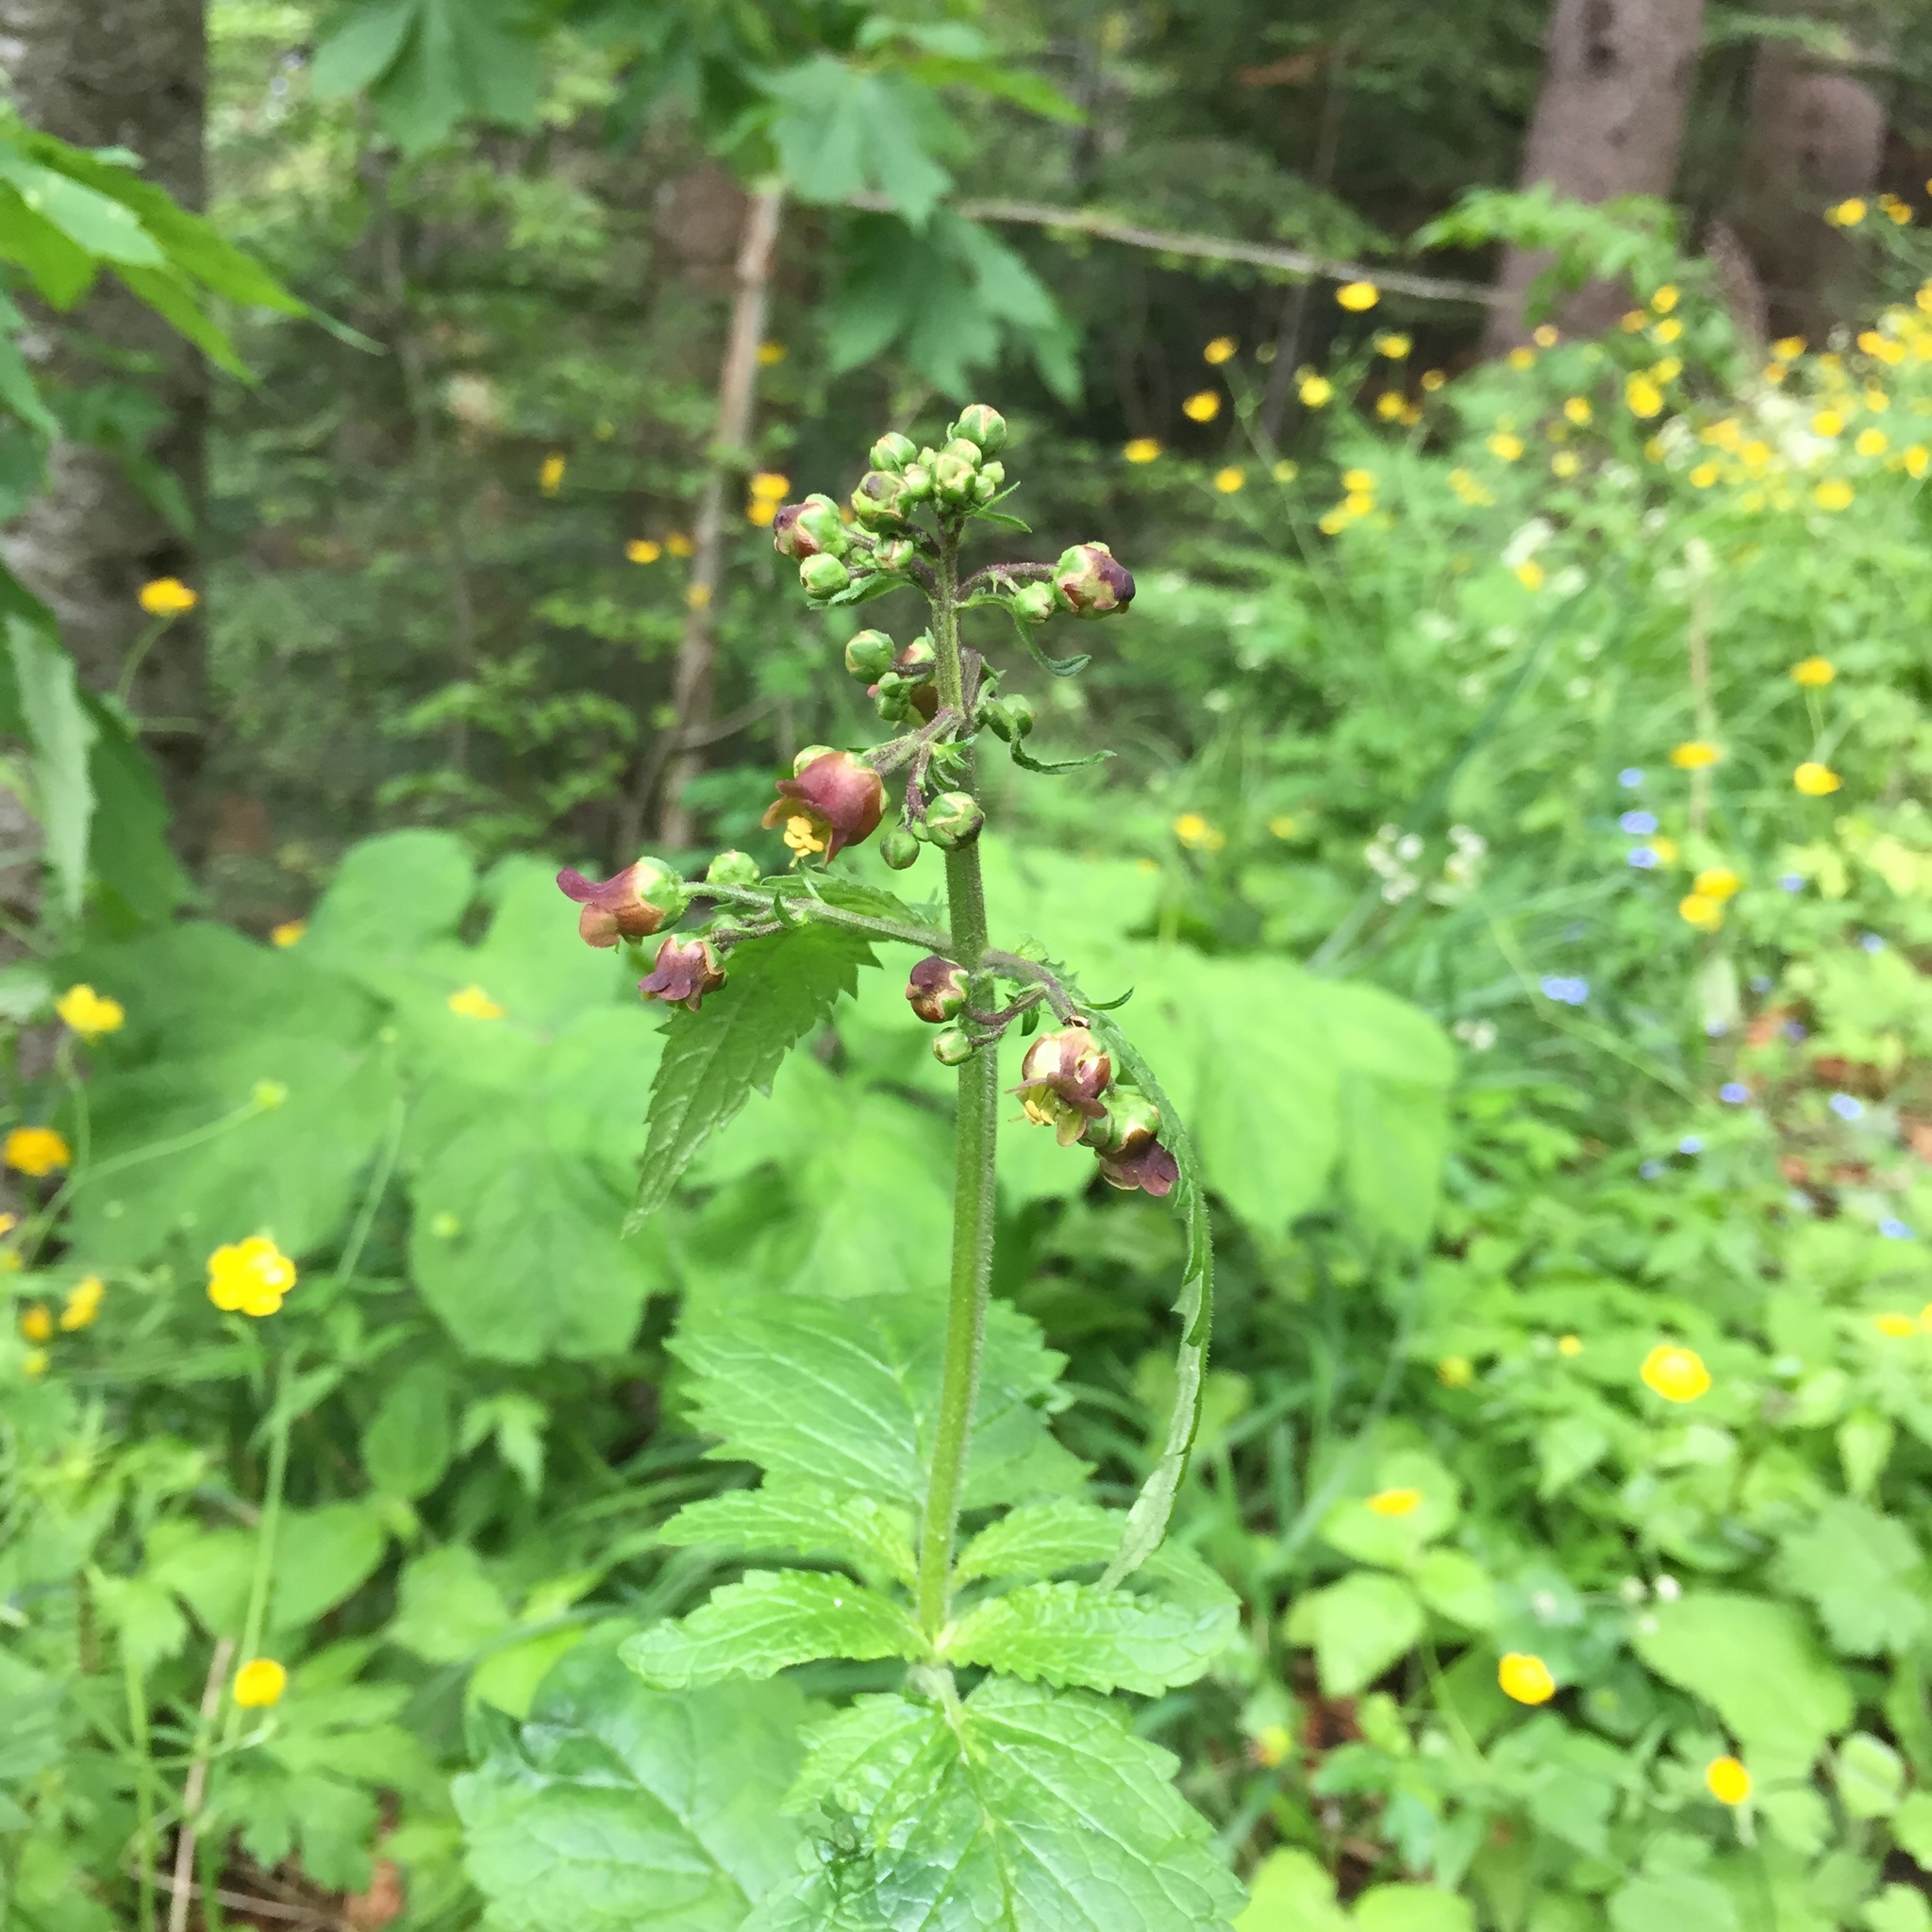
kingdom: Plantae
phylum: Tracheophyta
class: Magnoliopsida
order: Lamiales
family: Scrophulariaceae
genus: Scrophularia
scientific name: Scrophularia scopolii
